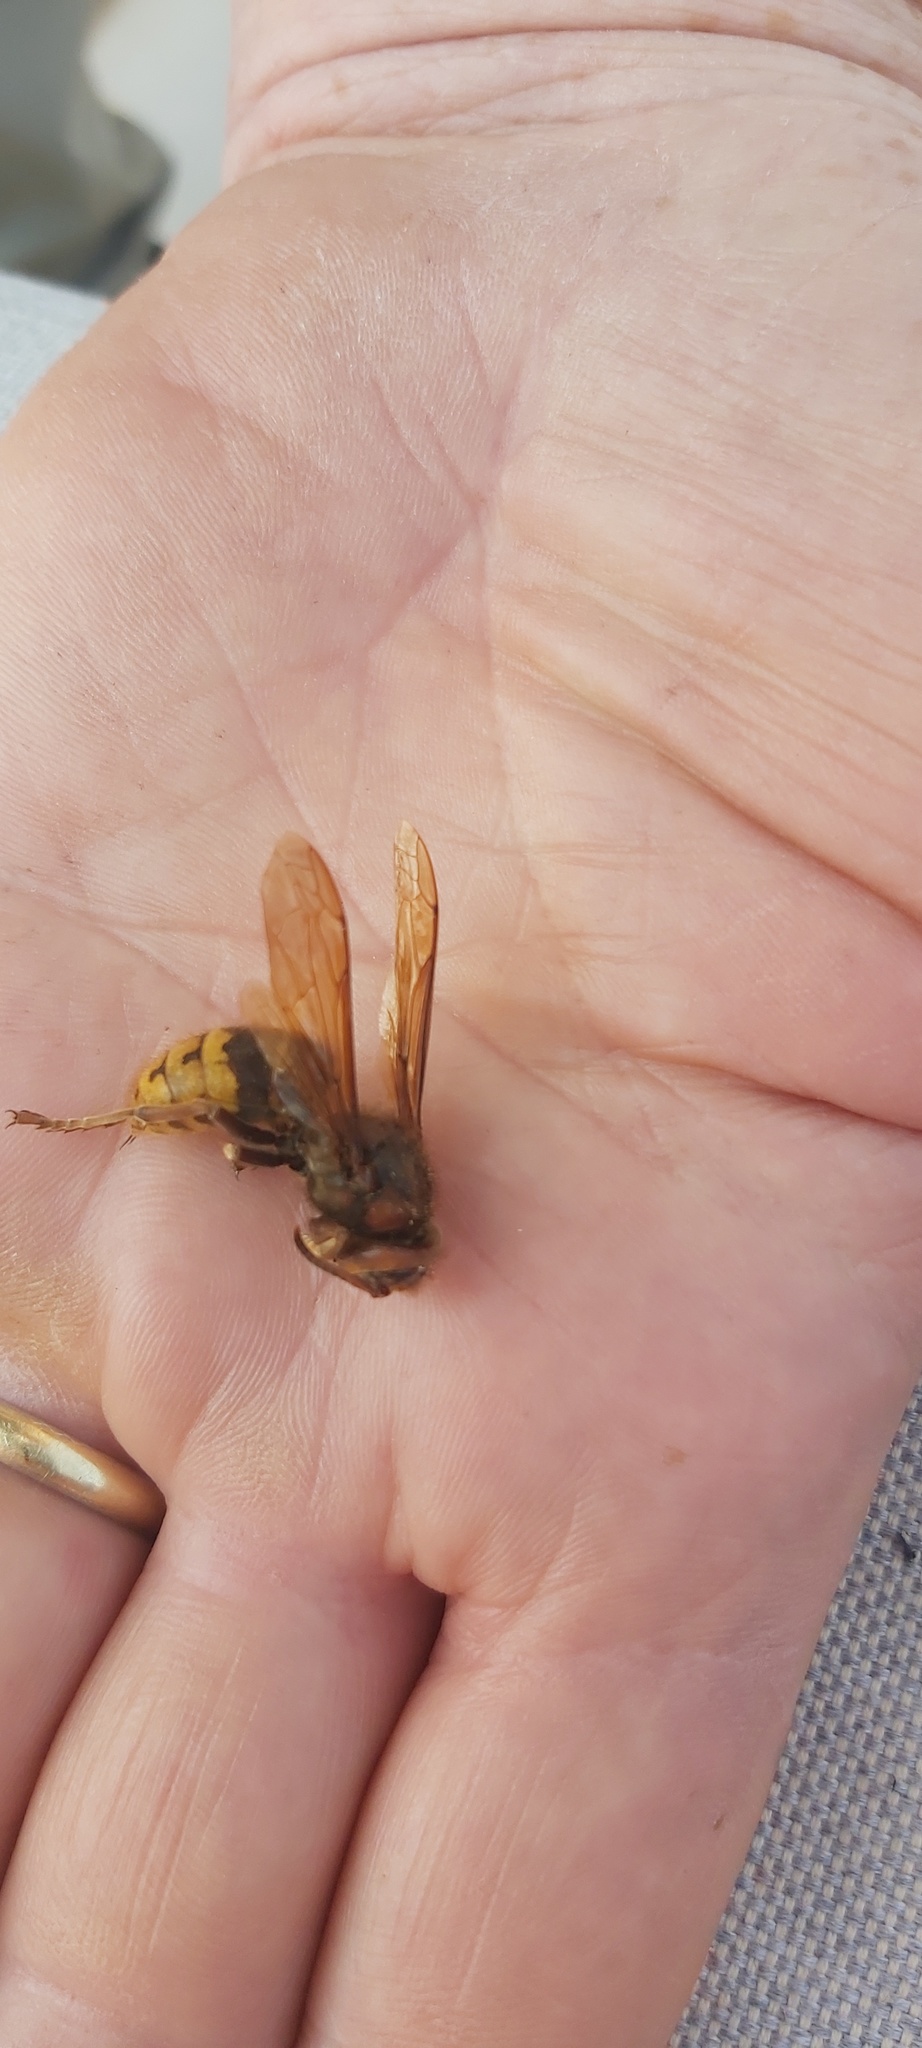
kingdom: Animalia
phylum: Arthropoda
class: Insecta
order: Hymenoptera
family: Vespidae
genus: Vespa
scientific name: Vespa crabro
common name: Hornet
